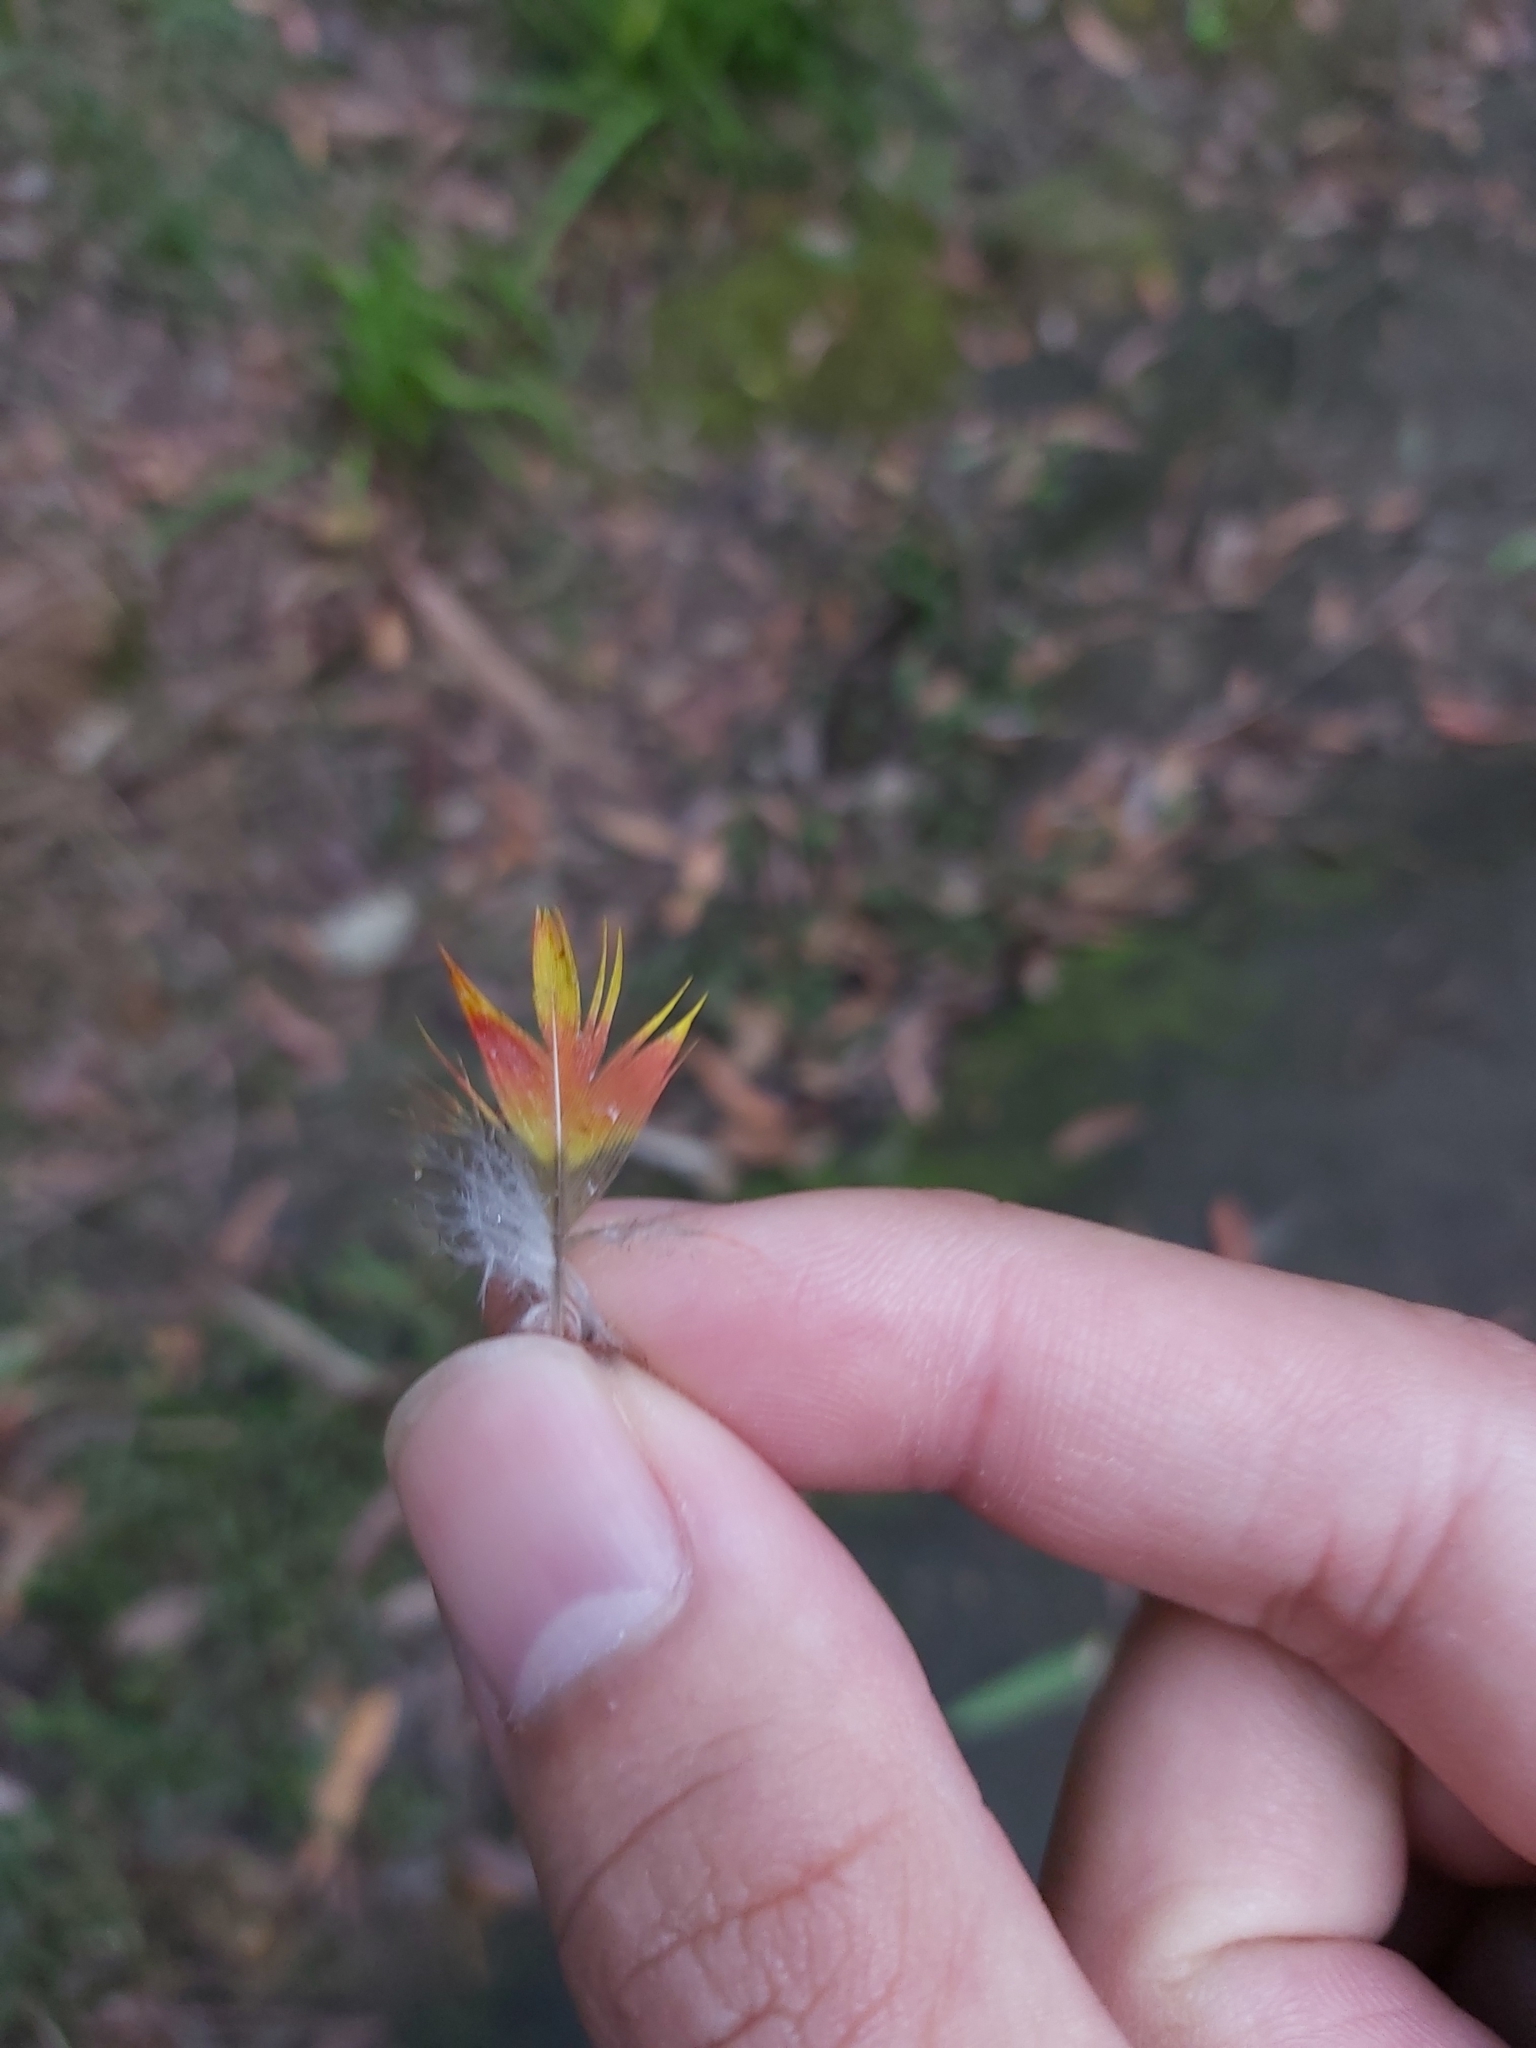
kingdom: Animalia
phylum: Chordata
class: Aves
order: Psittaciformes
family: Psittacidae
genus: Trichoglossus
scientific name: Trichoglossus haematodus
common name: Coconut lorikeet
